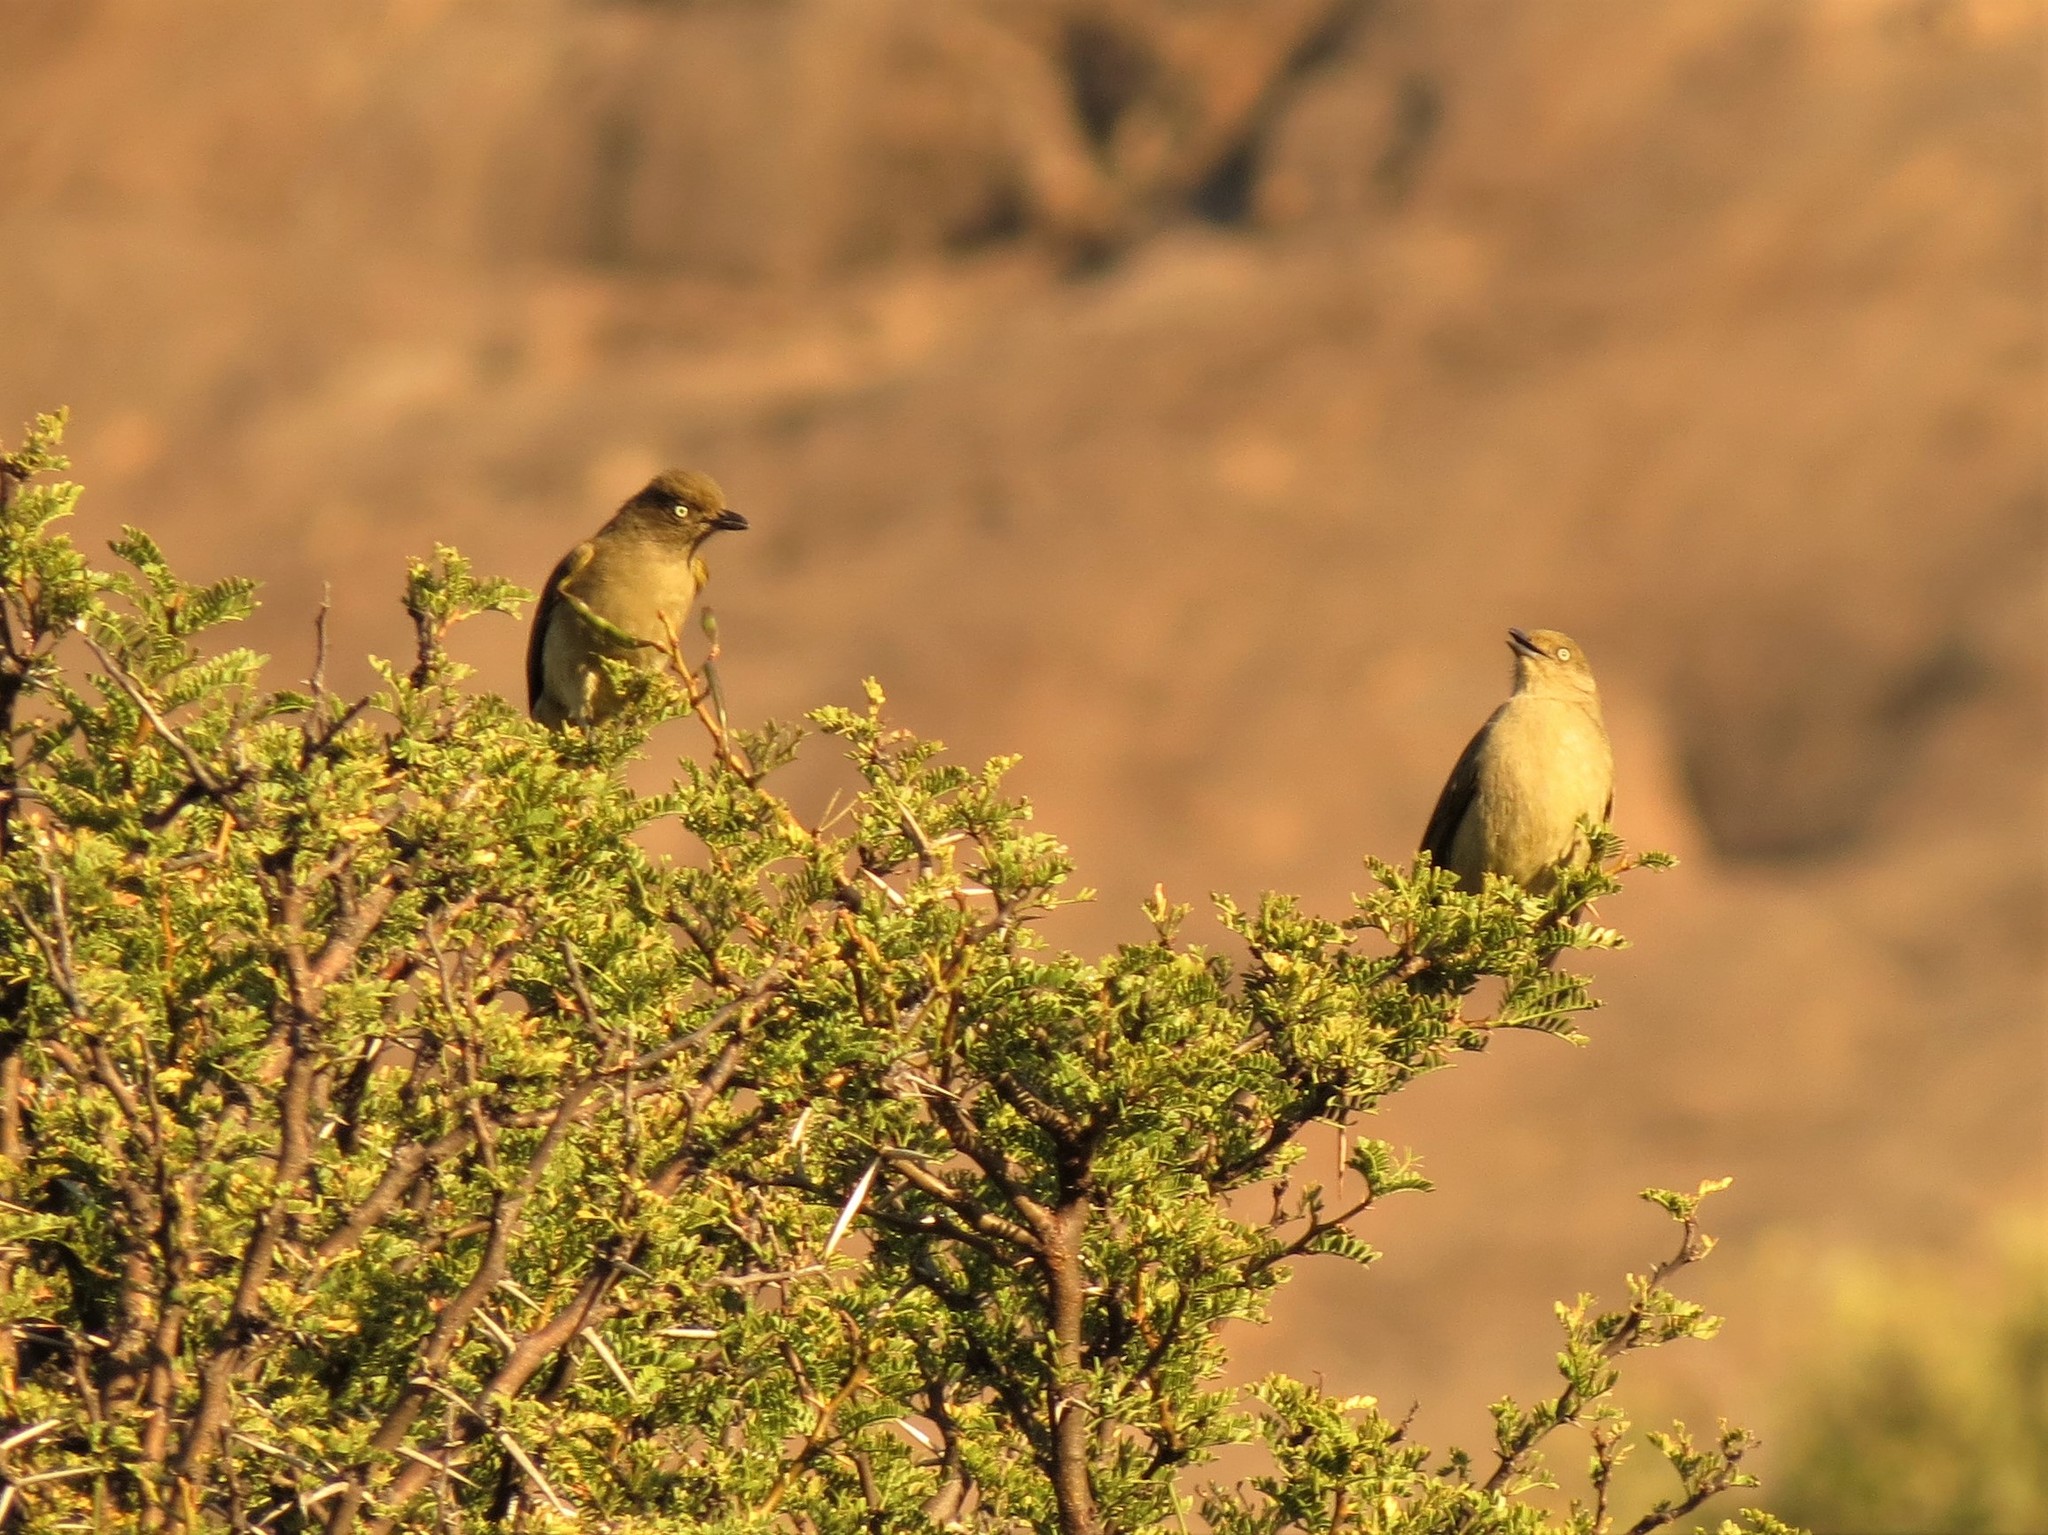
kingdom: Animalia
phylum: Chordata
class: Aves
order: Passeriformes
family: Pycnonotidae
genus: Andropadus
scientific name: Andropadus importunus
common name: Sombre greenbul
